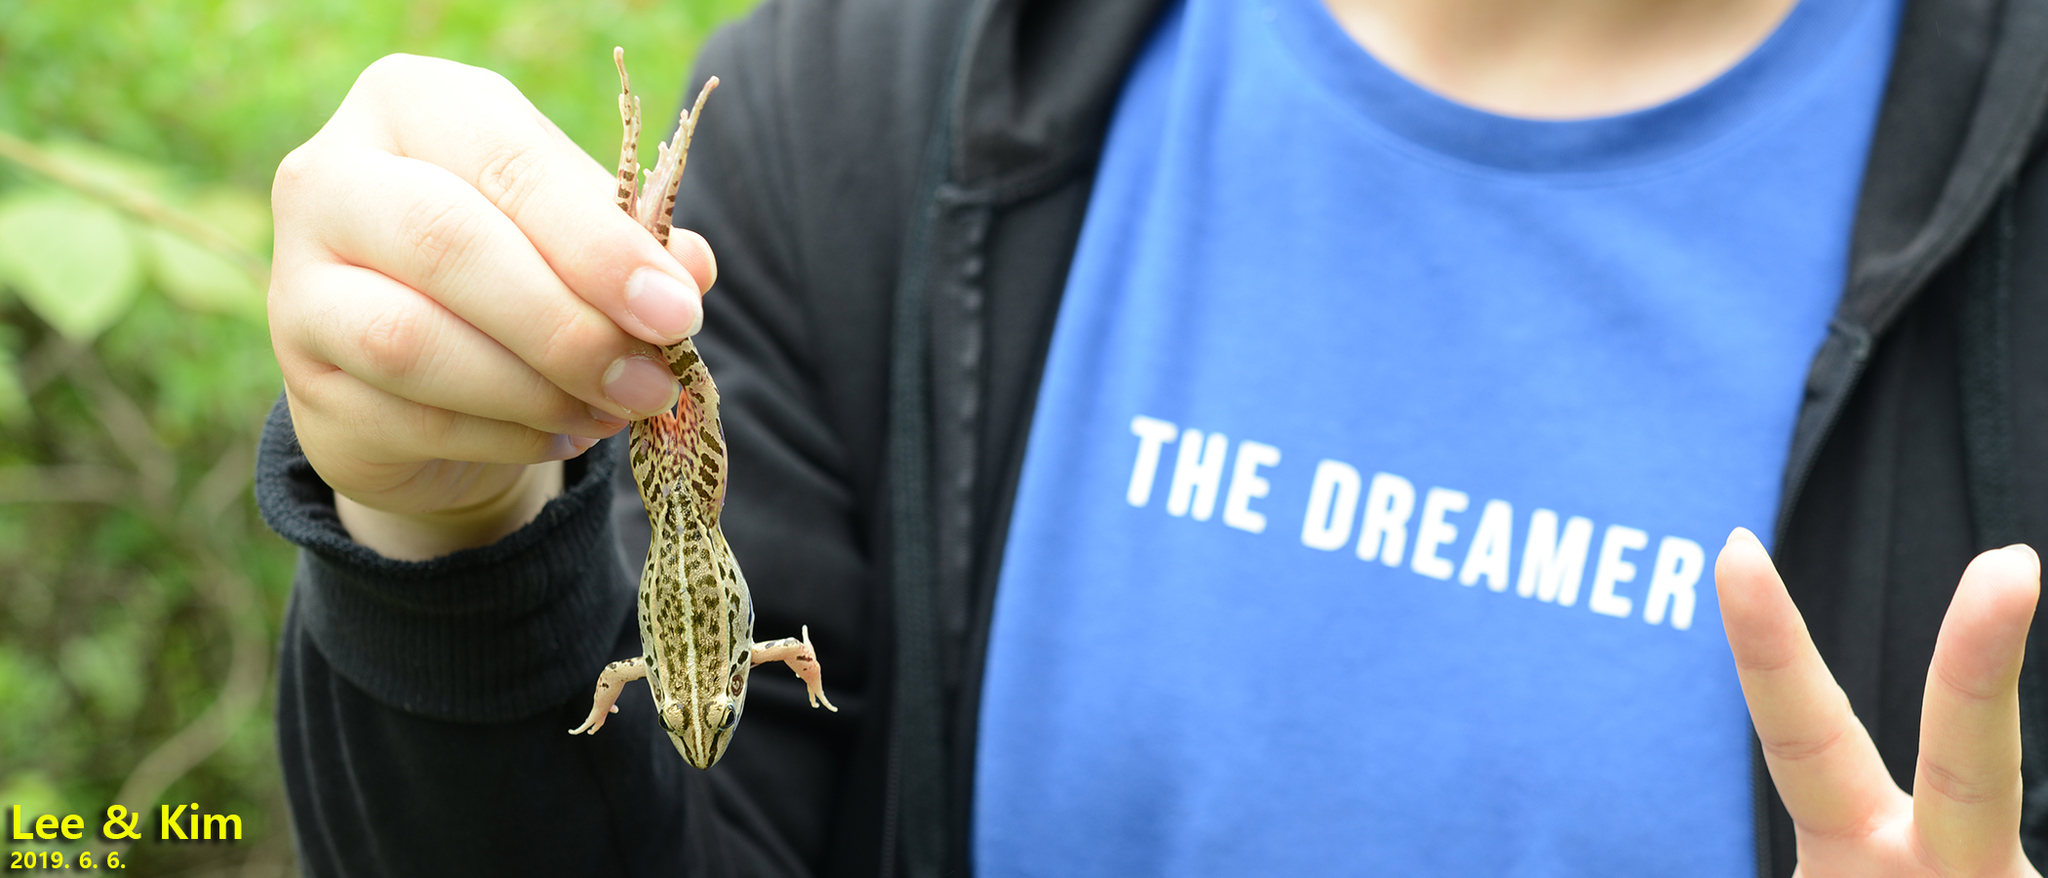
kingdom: Animalia
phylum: Chordata
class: Amphibia
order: Anura
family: Ranidae
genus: Pelophylax
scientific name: Pelophylax nigromaculatus
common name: Black-spotted pond frog
